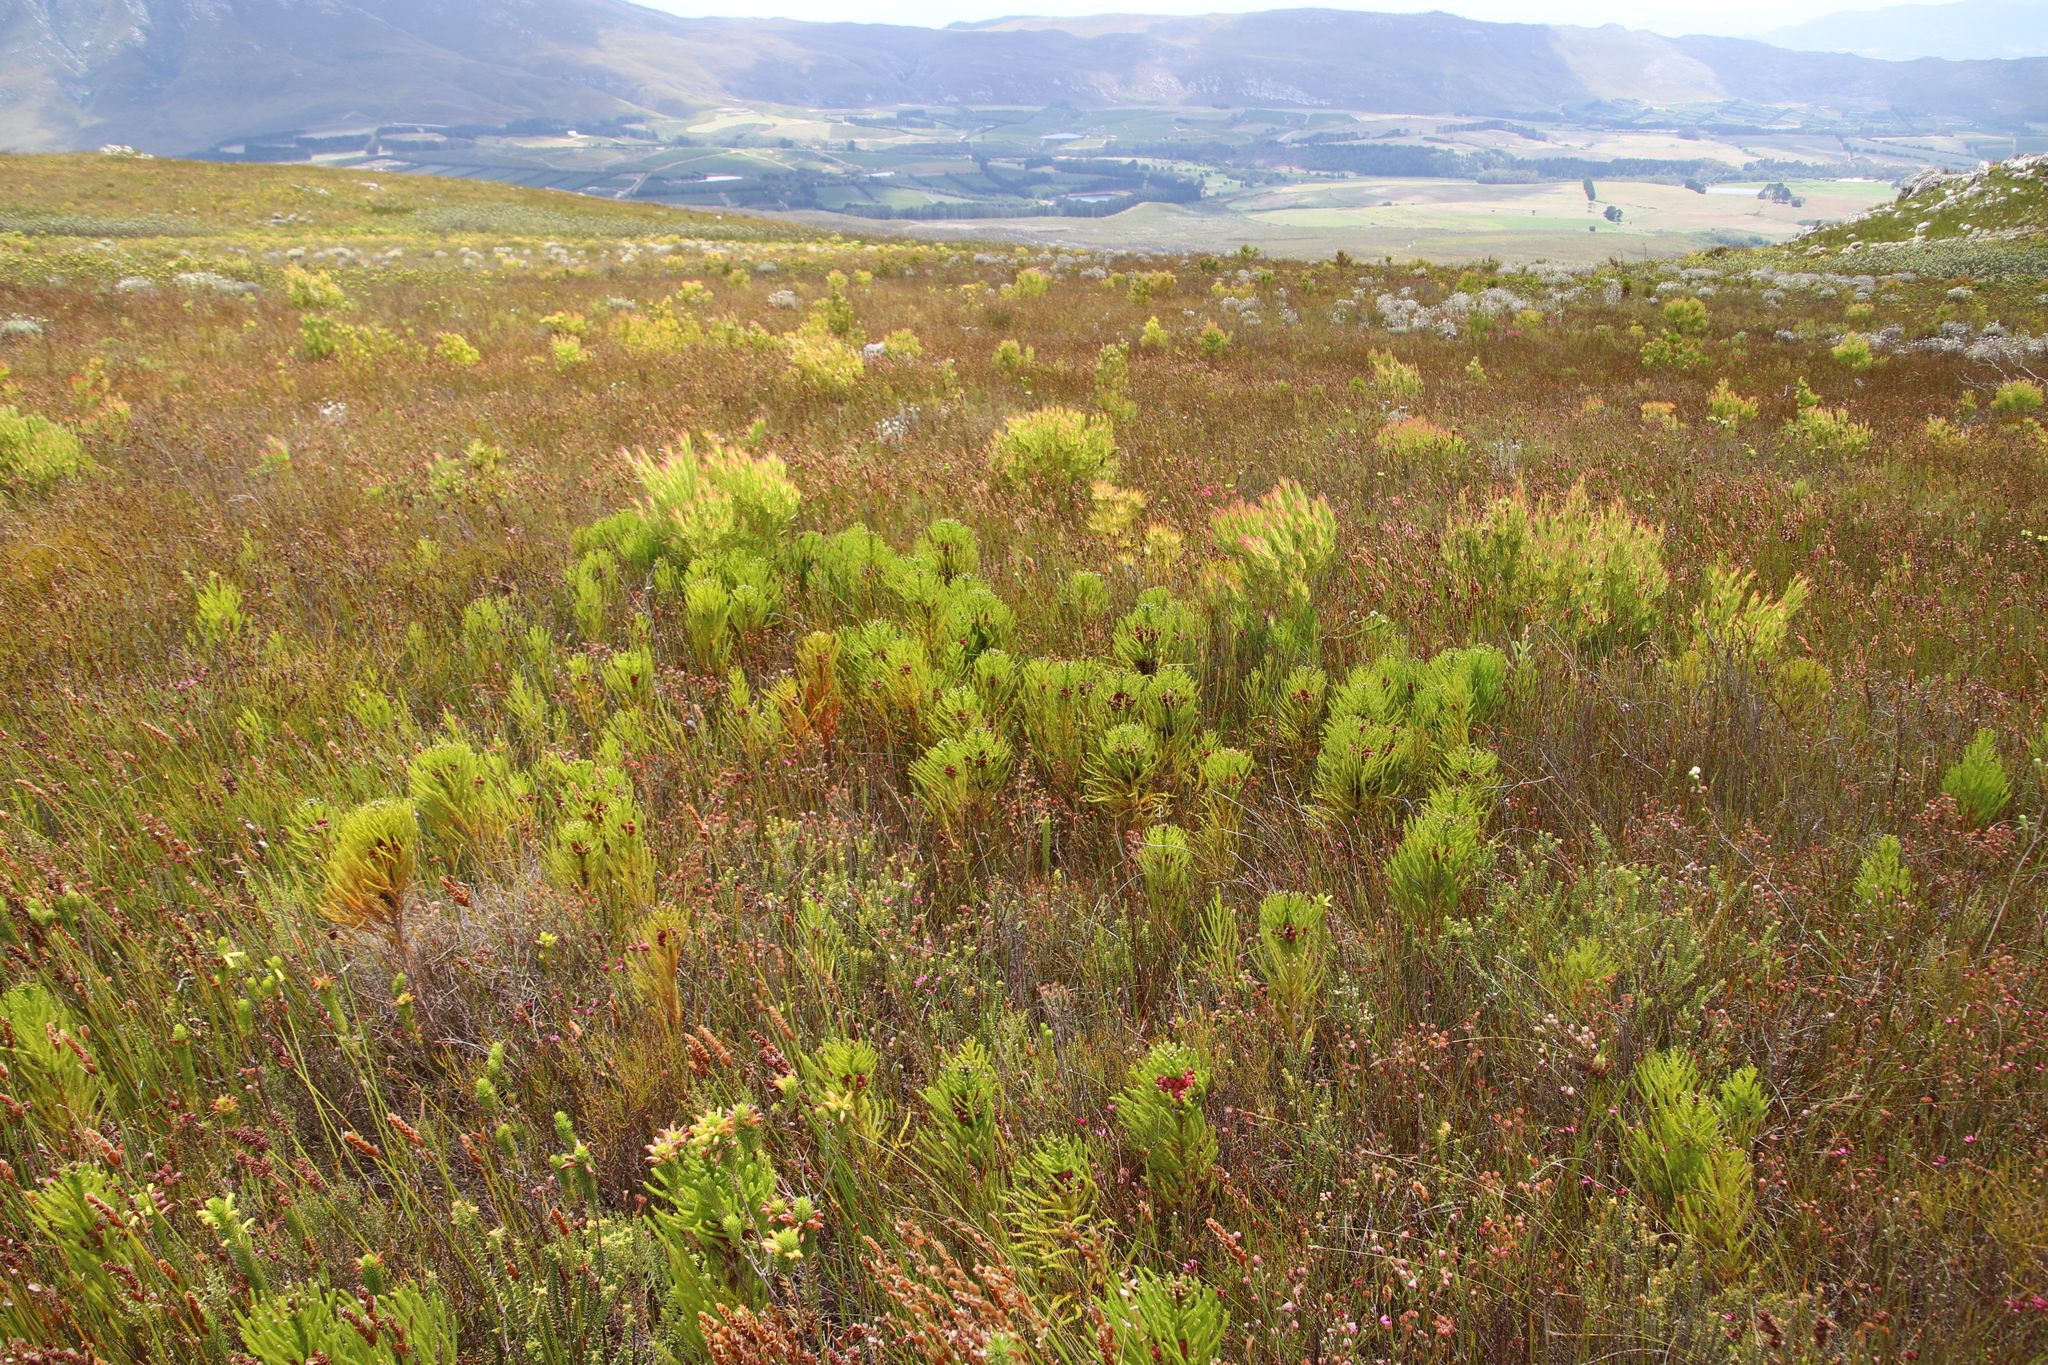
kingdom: Plantae
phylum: Tracheophyta
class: Magnoliopsida
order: Bruniales
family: Bruniaceae
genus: Berzelia
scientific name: Berzelia alopecurioides
